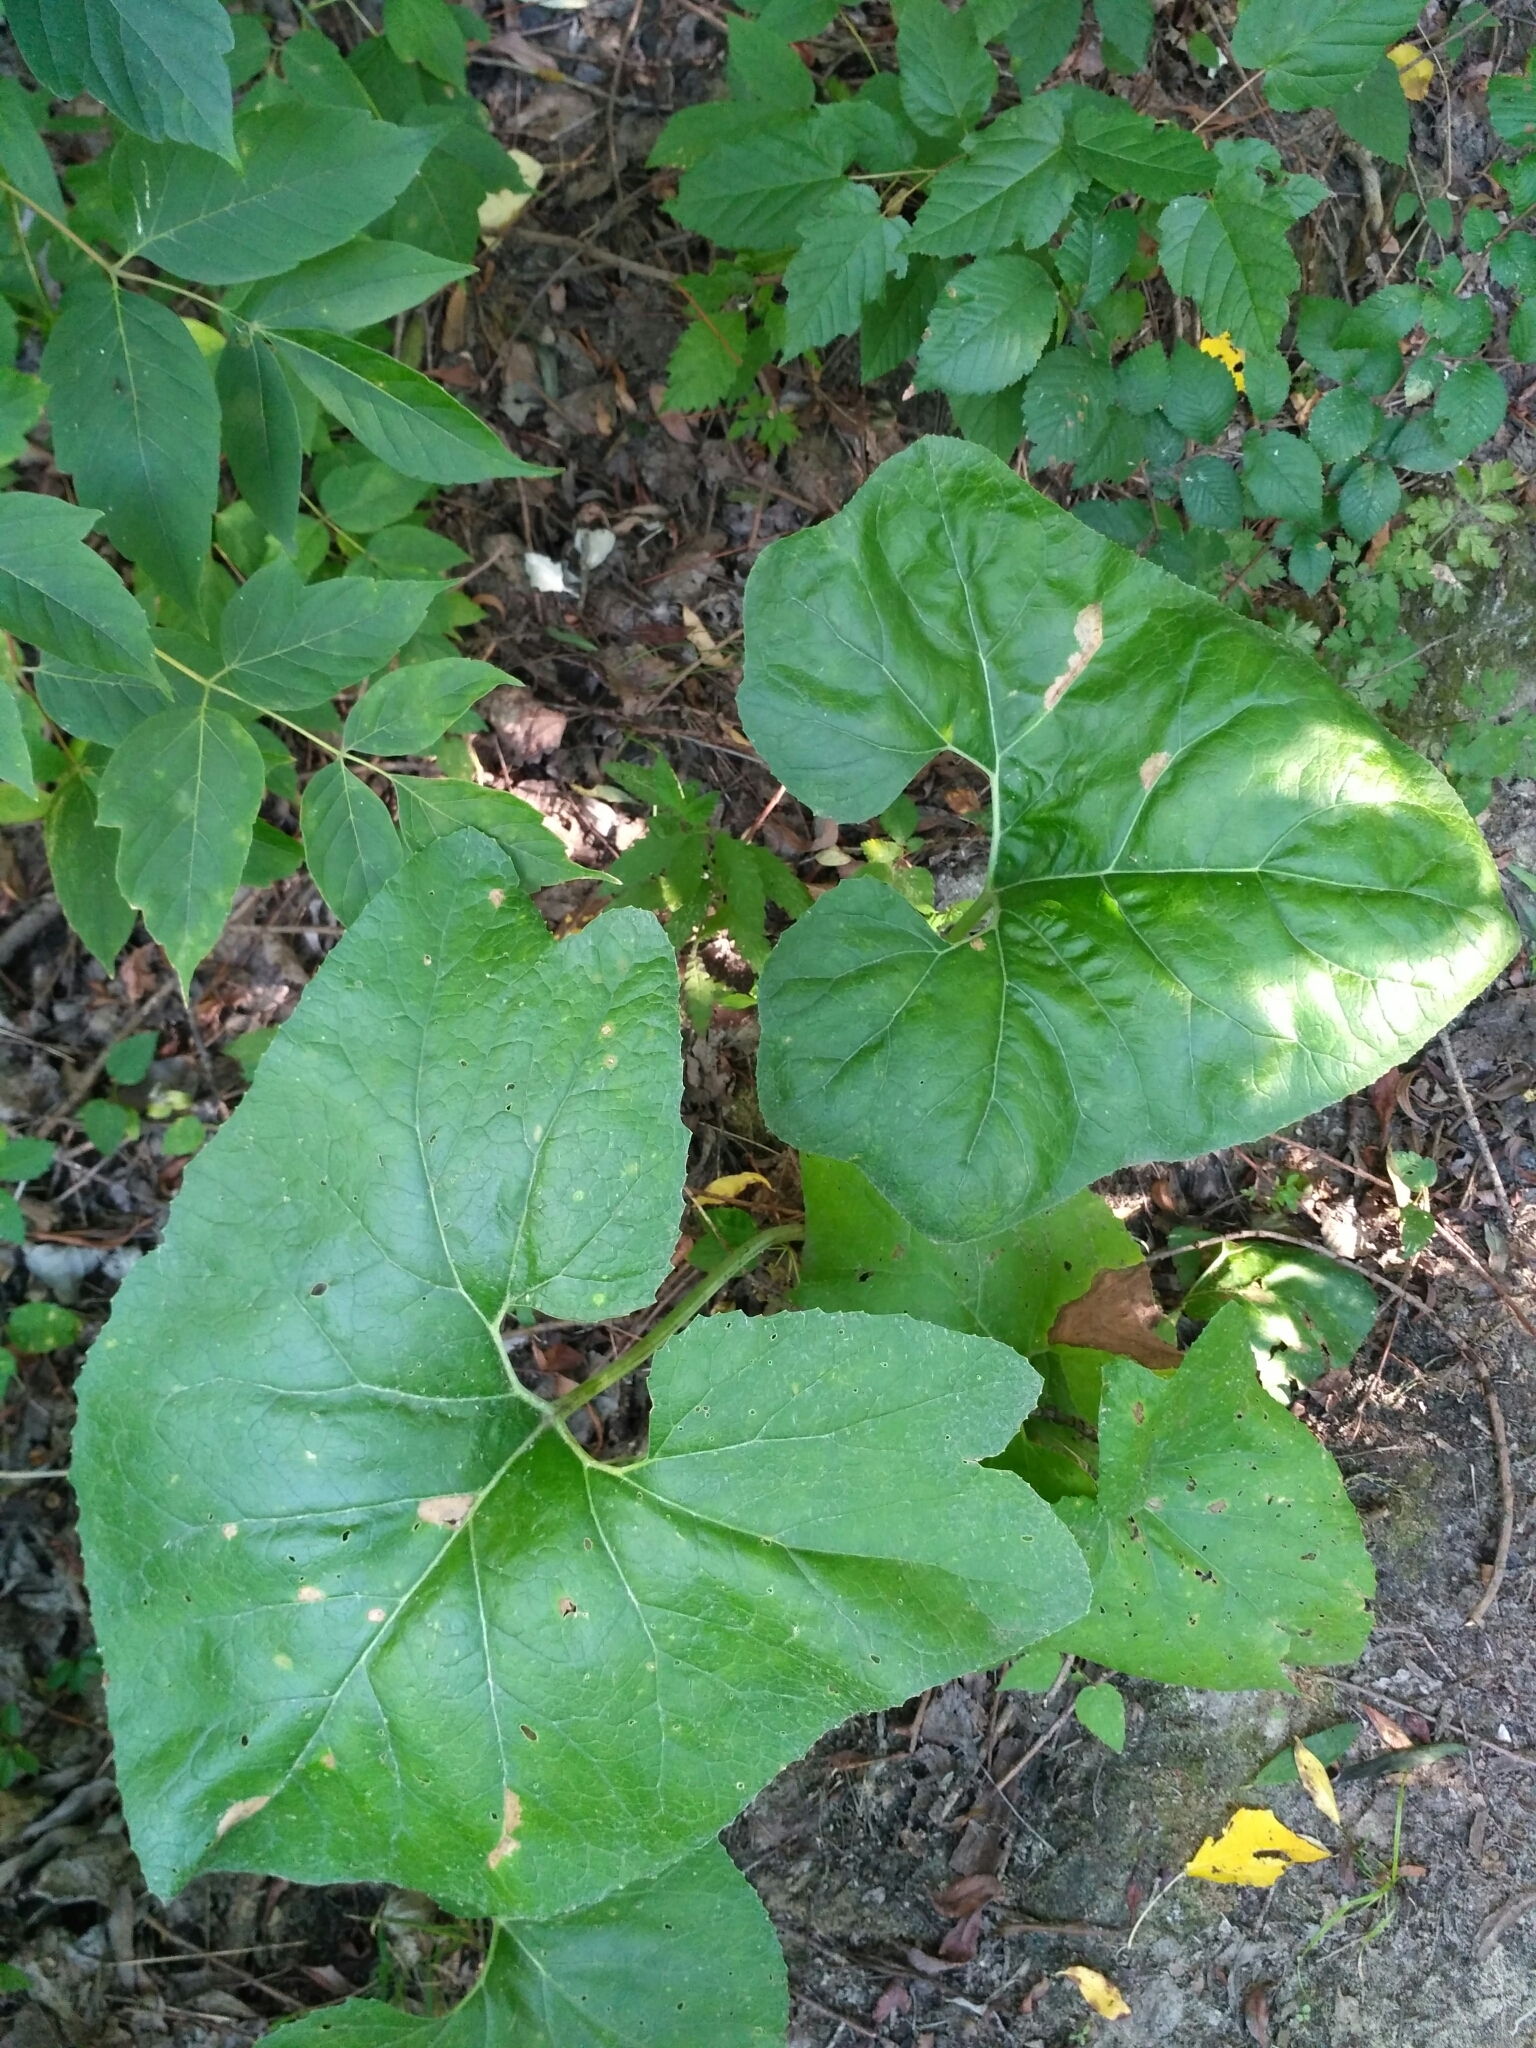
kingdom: Plantae
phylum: Tracheophyta
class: Magnoliopsida
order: Asterales
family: Asteraceae
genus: Petasites
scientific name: Petasites spurius
